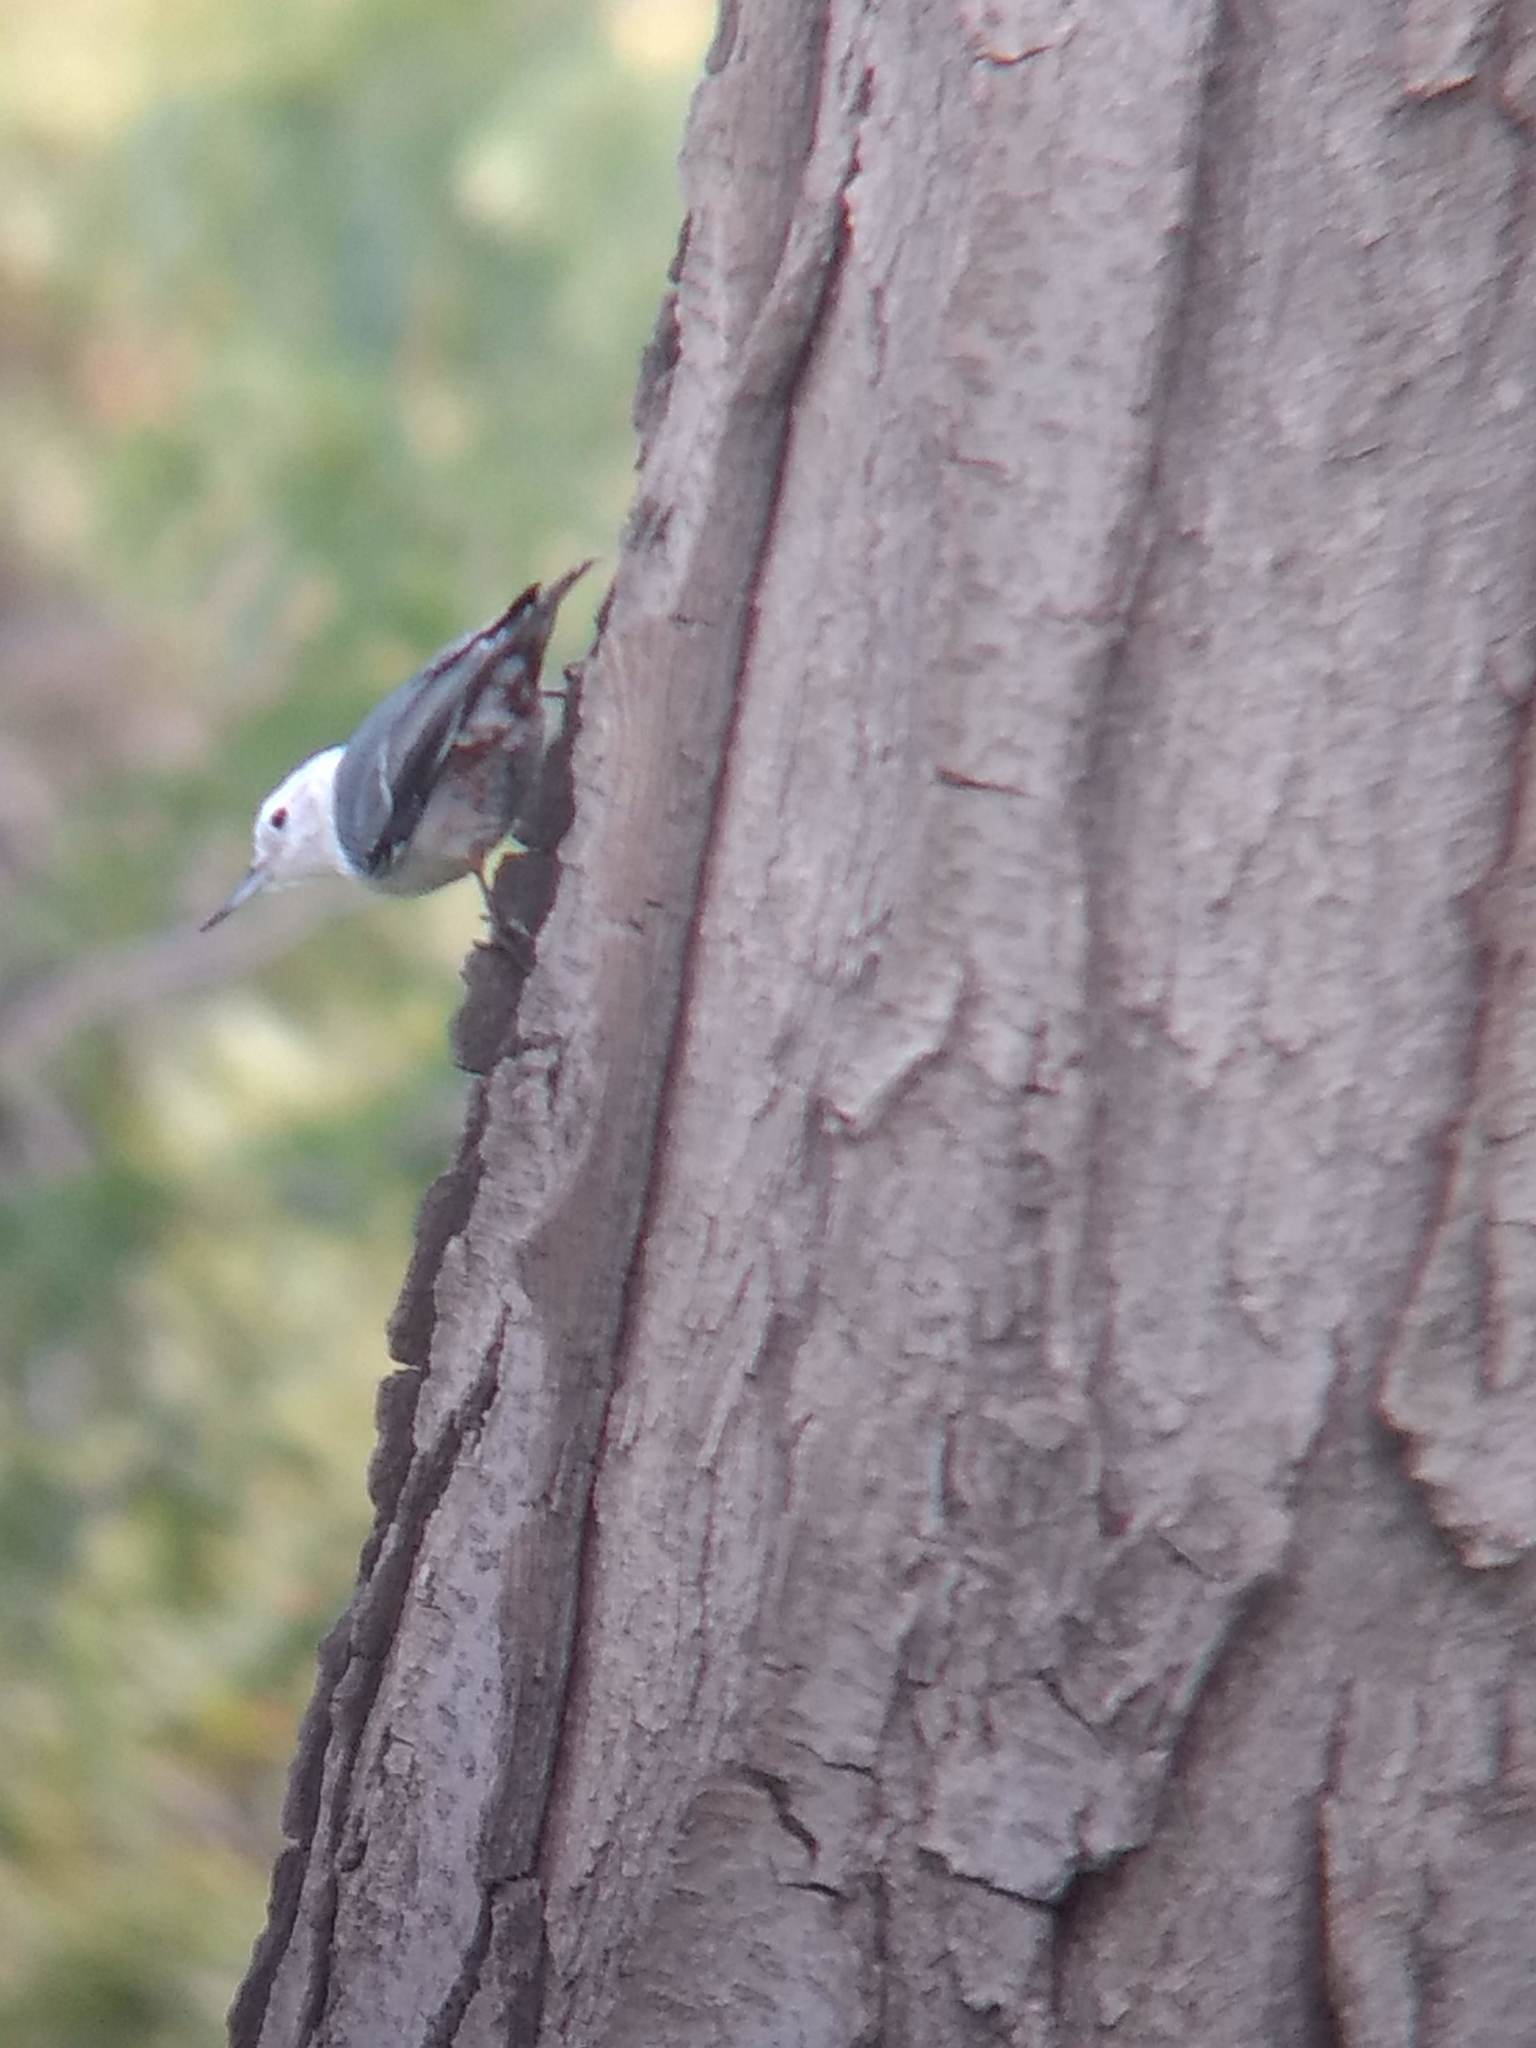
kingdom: Animalia
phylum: Chordata
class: Aves
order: Passeriformes
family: Sittidae
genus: Sitta
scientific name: Sitta carolinensis
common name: White-breasted nuthatch
